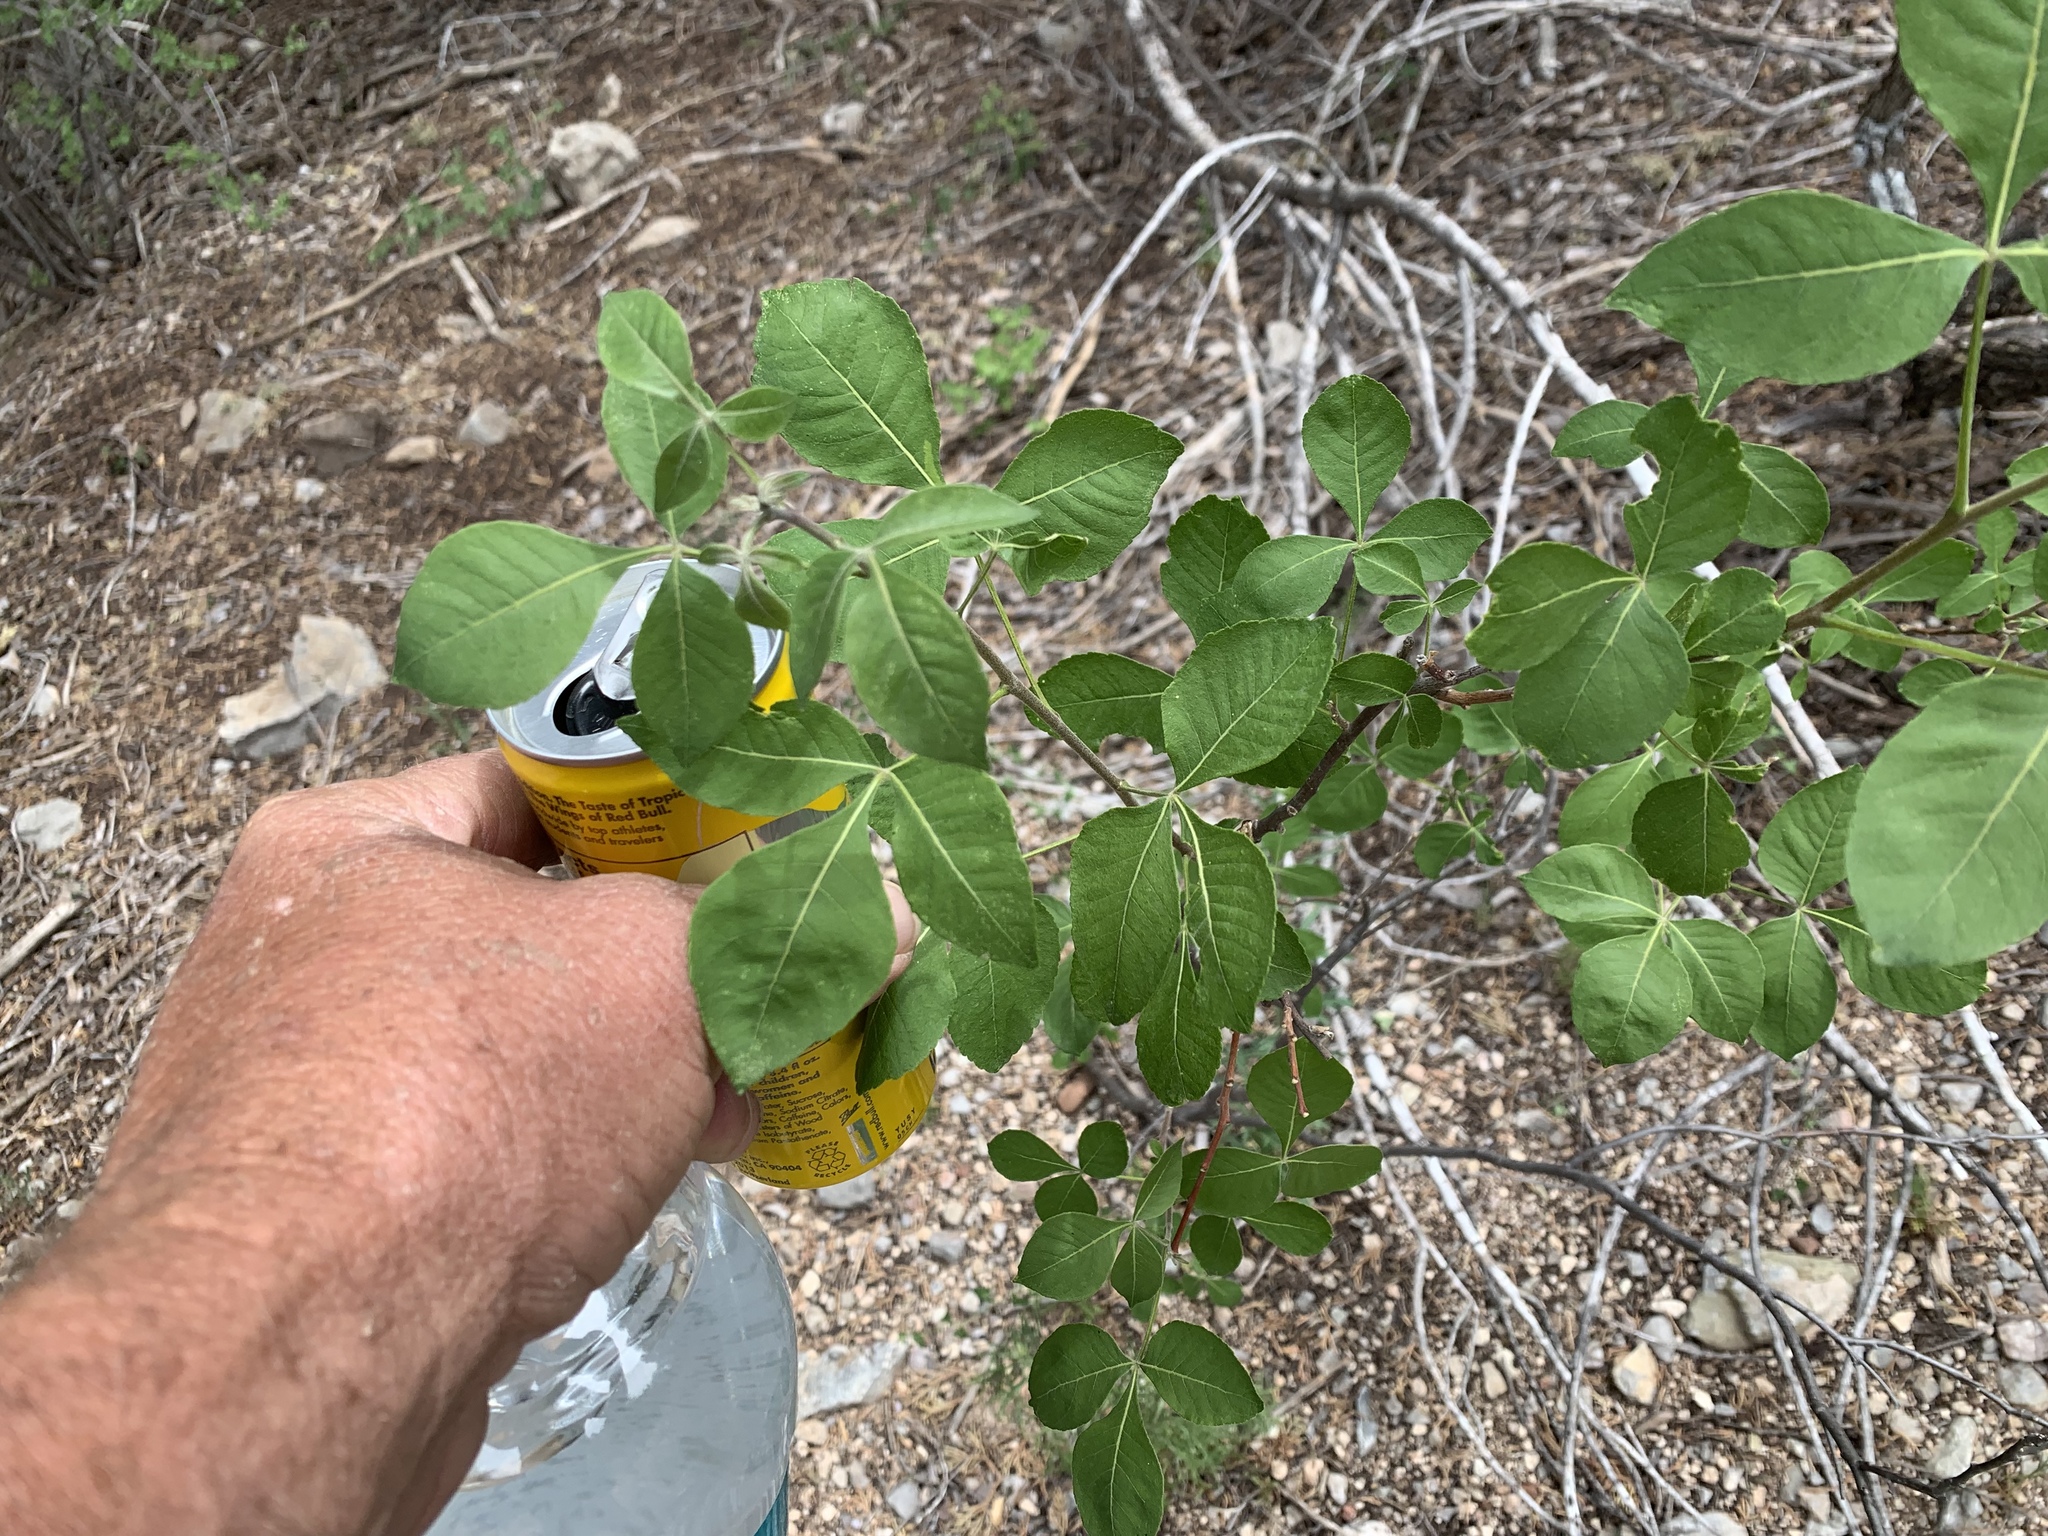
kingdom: Plantae
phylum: Tracheophyta
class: Magnoliopsida
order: Sapindales
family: Rutaceae
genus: Ptelea
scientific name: Ptelea trifoliata
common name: Common hop-tree
